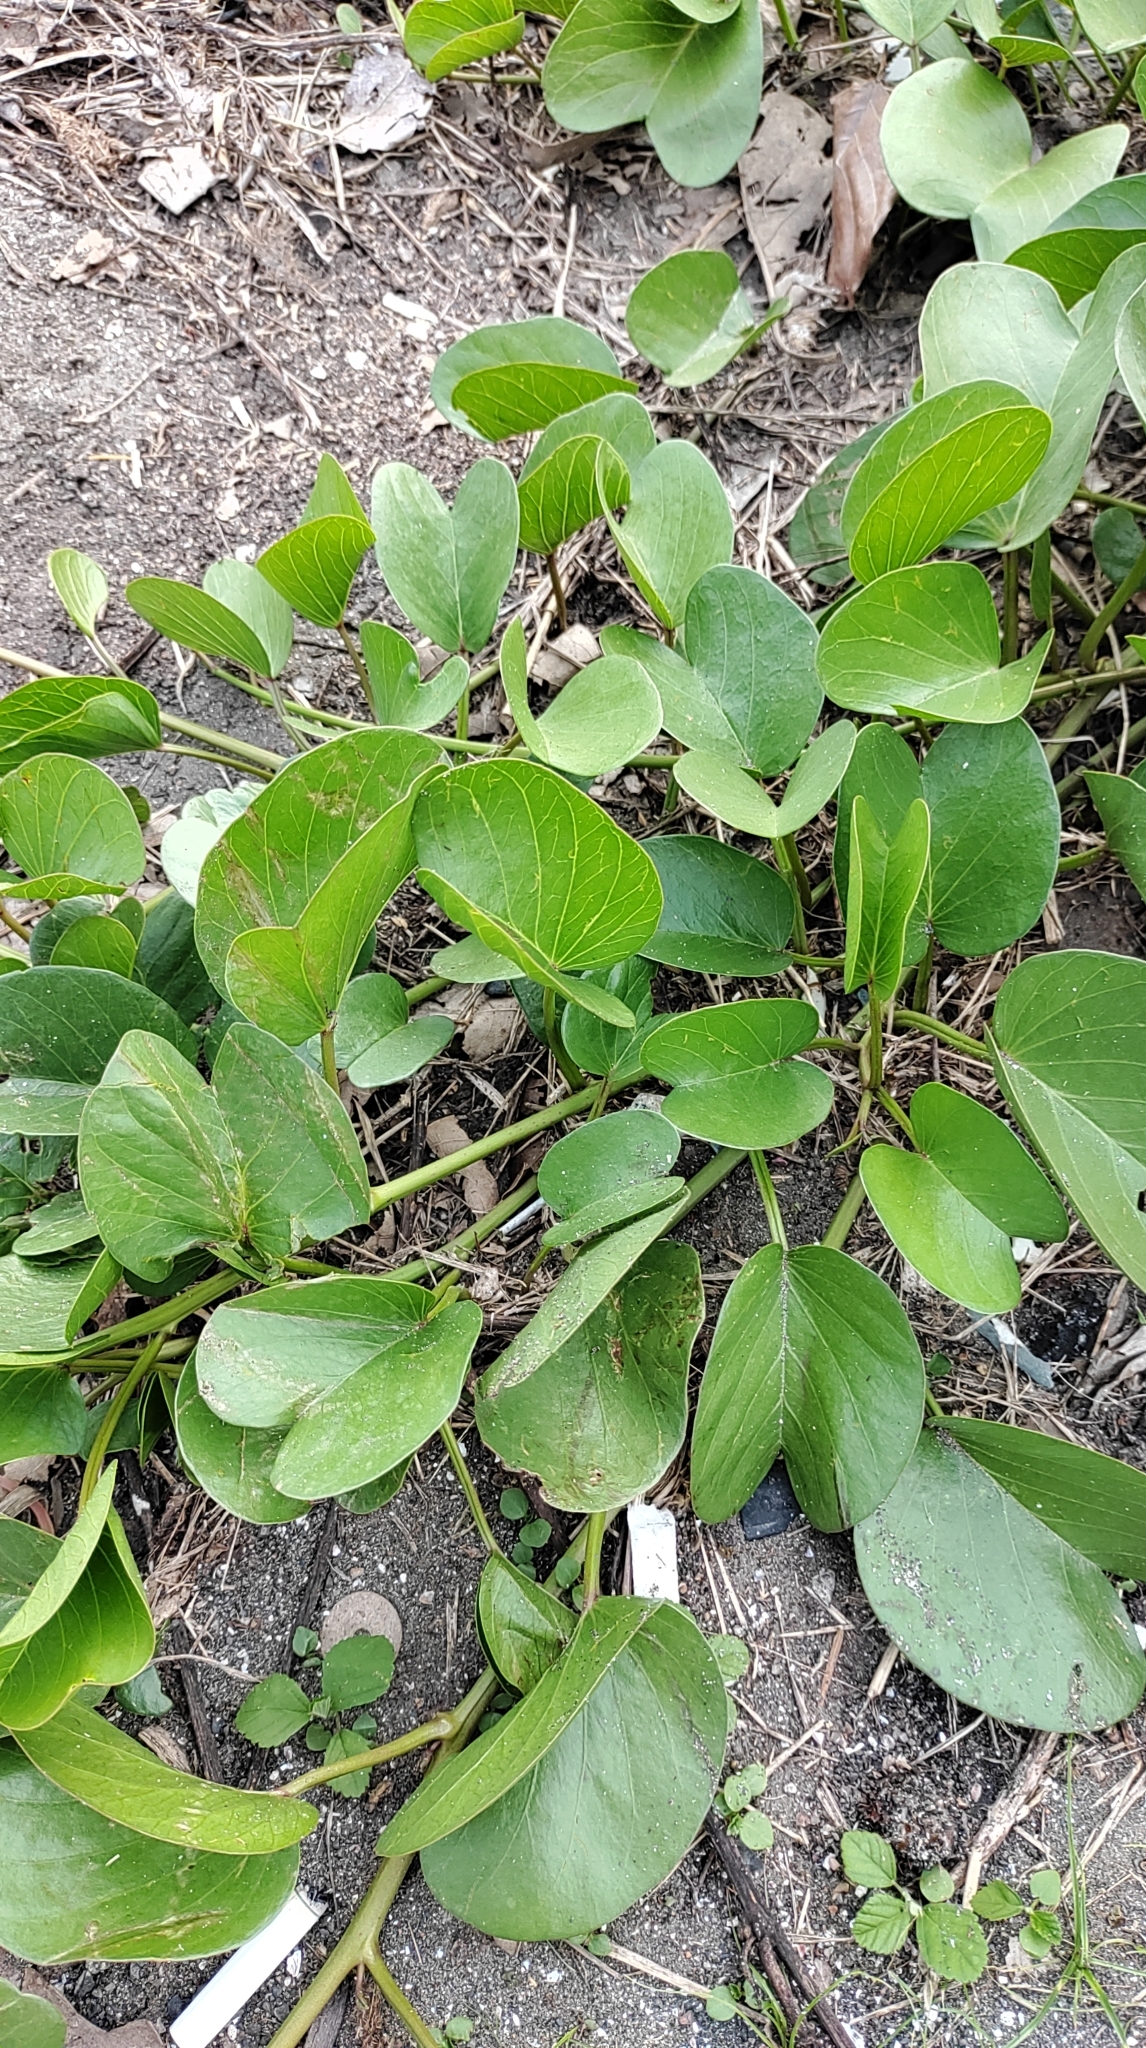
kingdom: Plantae
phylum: Tracheophyta
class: Magnoliopsida
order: Solanales
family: Convolvulaceae
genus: Ipomoea
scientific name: Ipomoea pes-caprae
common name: Beach morning glory
